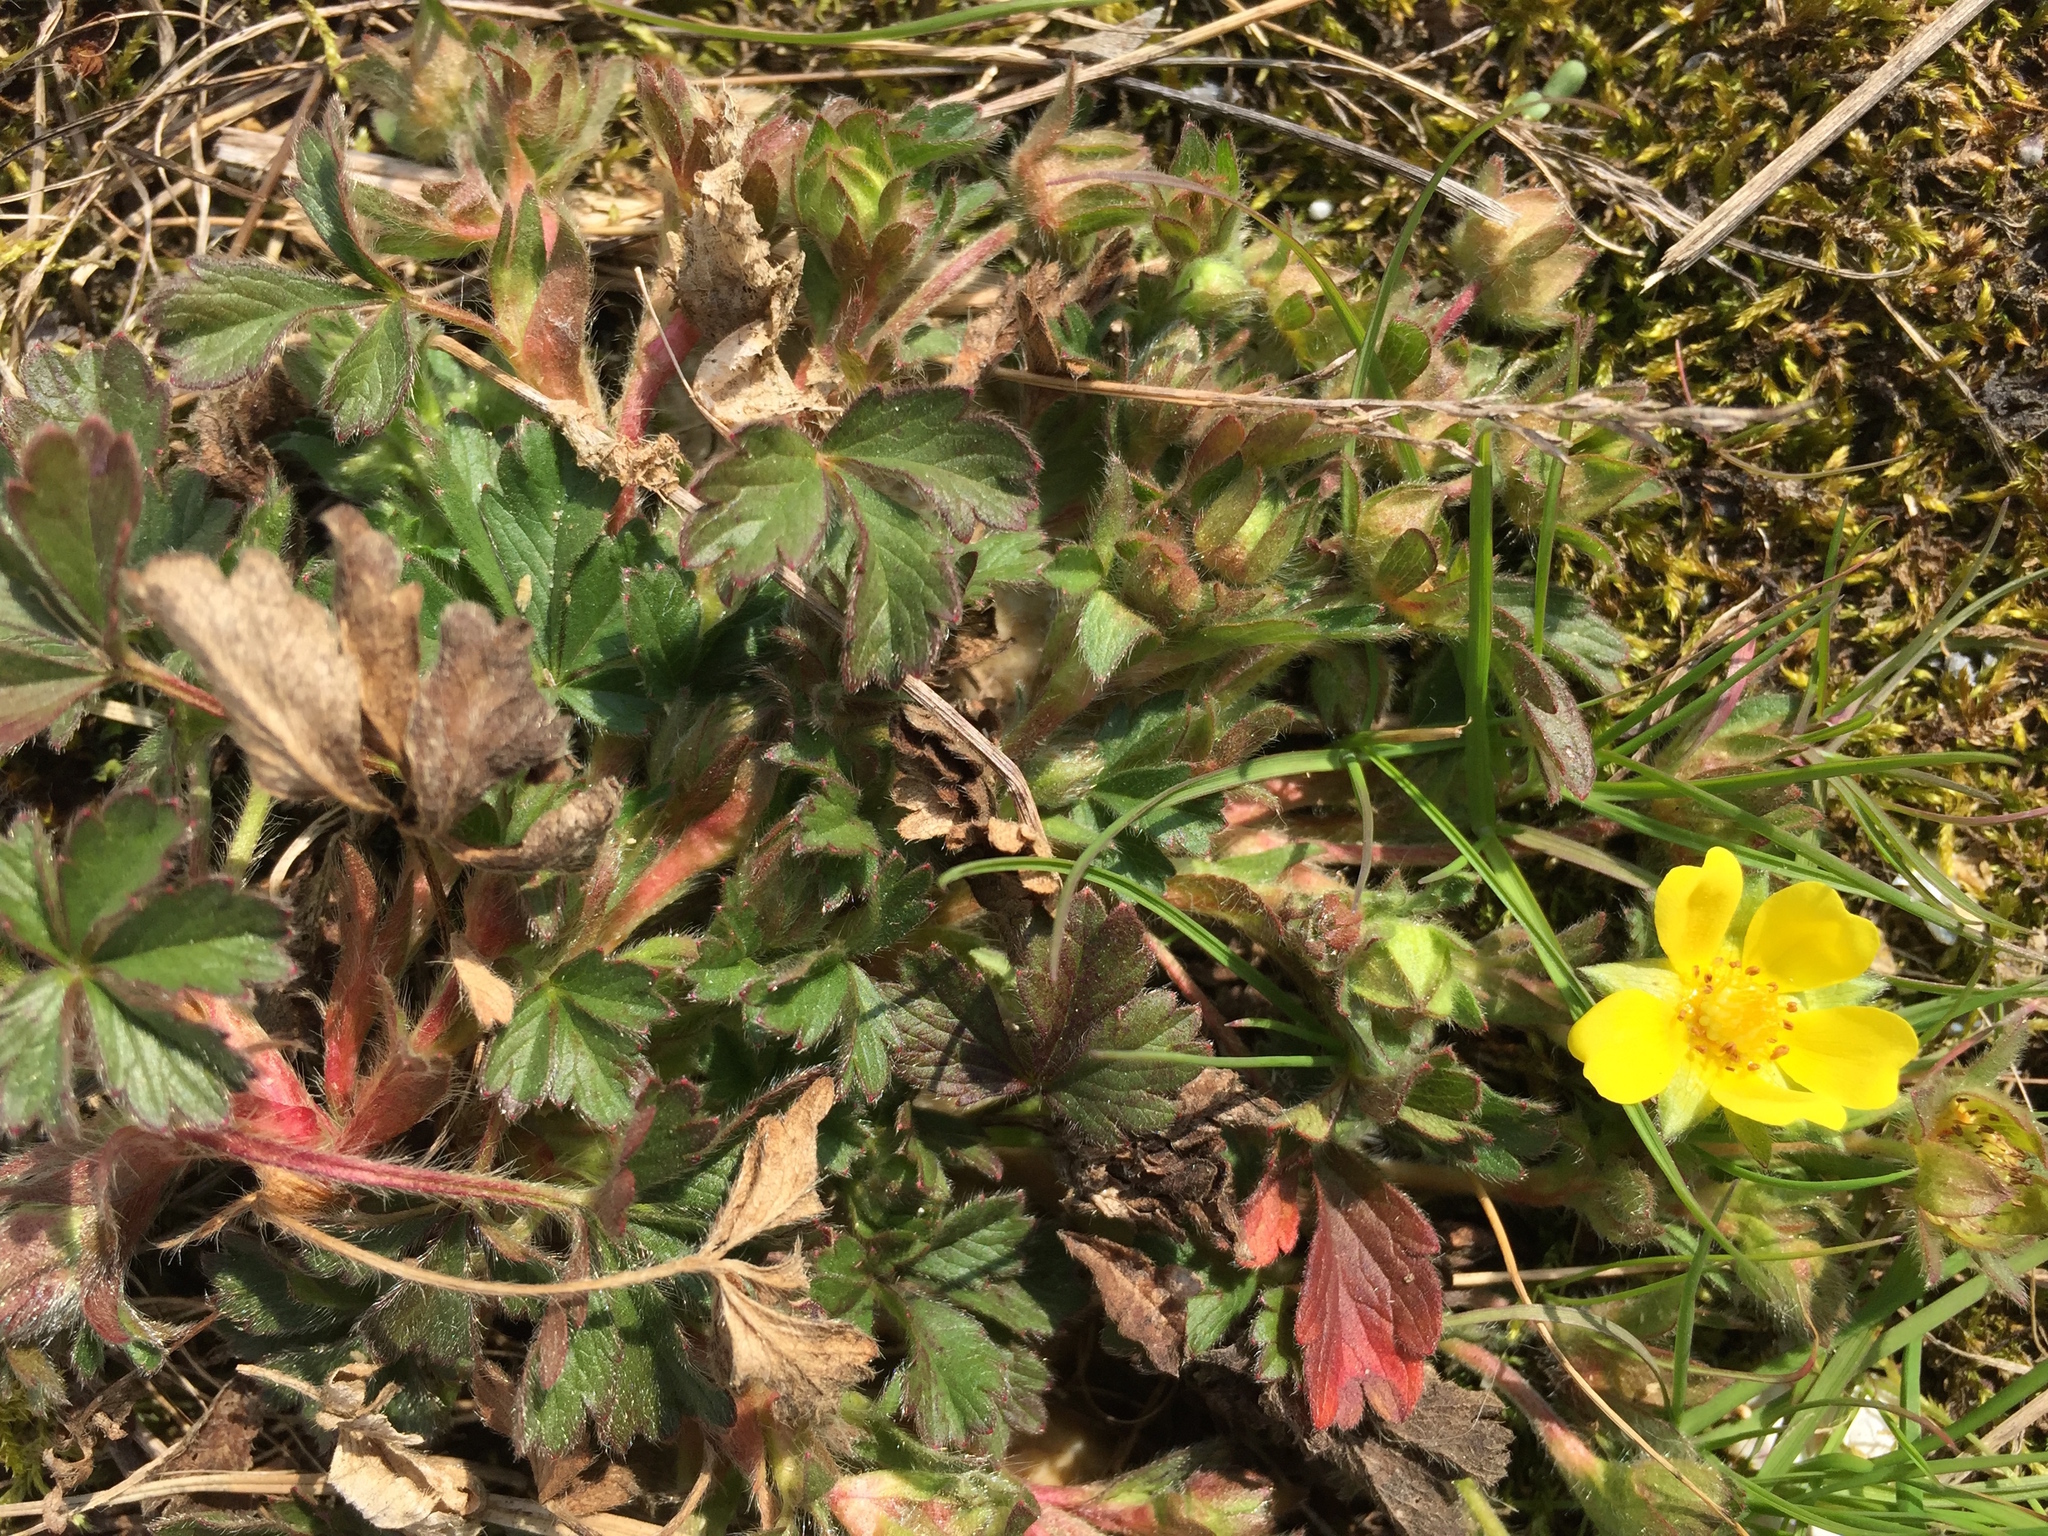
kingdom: Plantae
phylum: Tracheophyta
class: Magnoliopsida
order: Rosales
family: Rosaceae
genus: Potentilla
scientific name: Potentilla verna
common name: Spring cinquefoil
